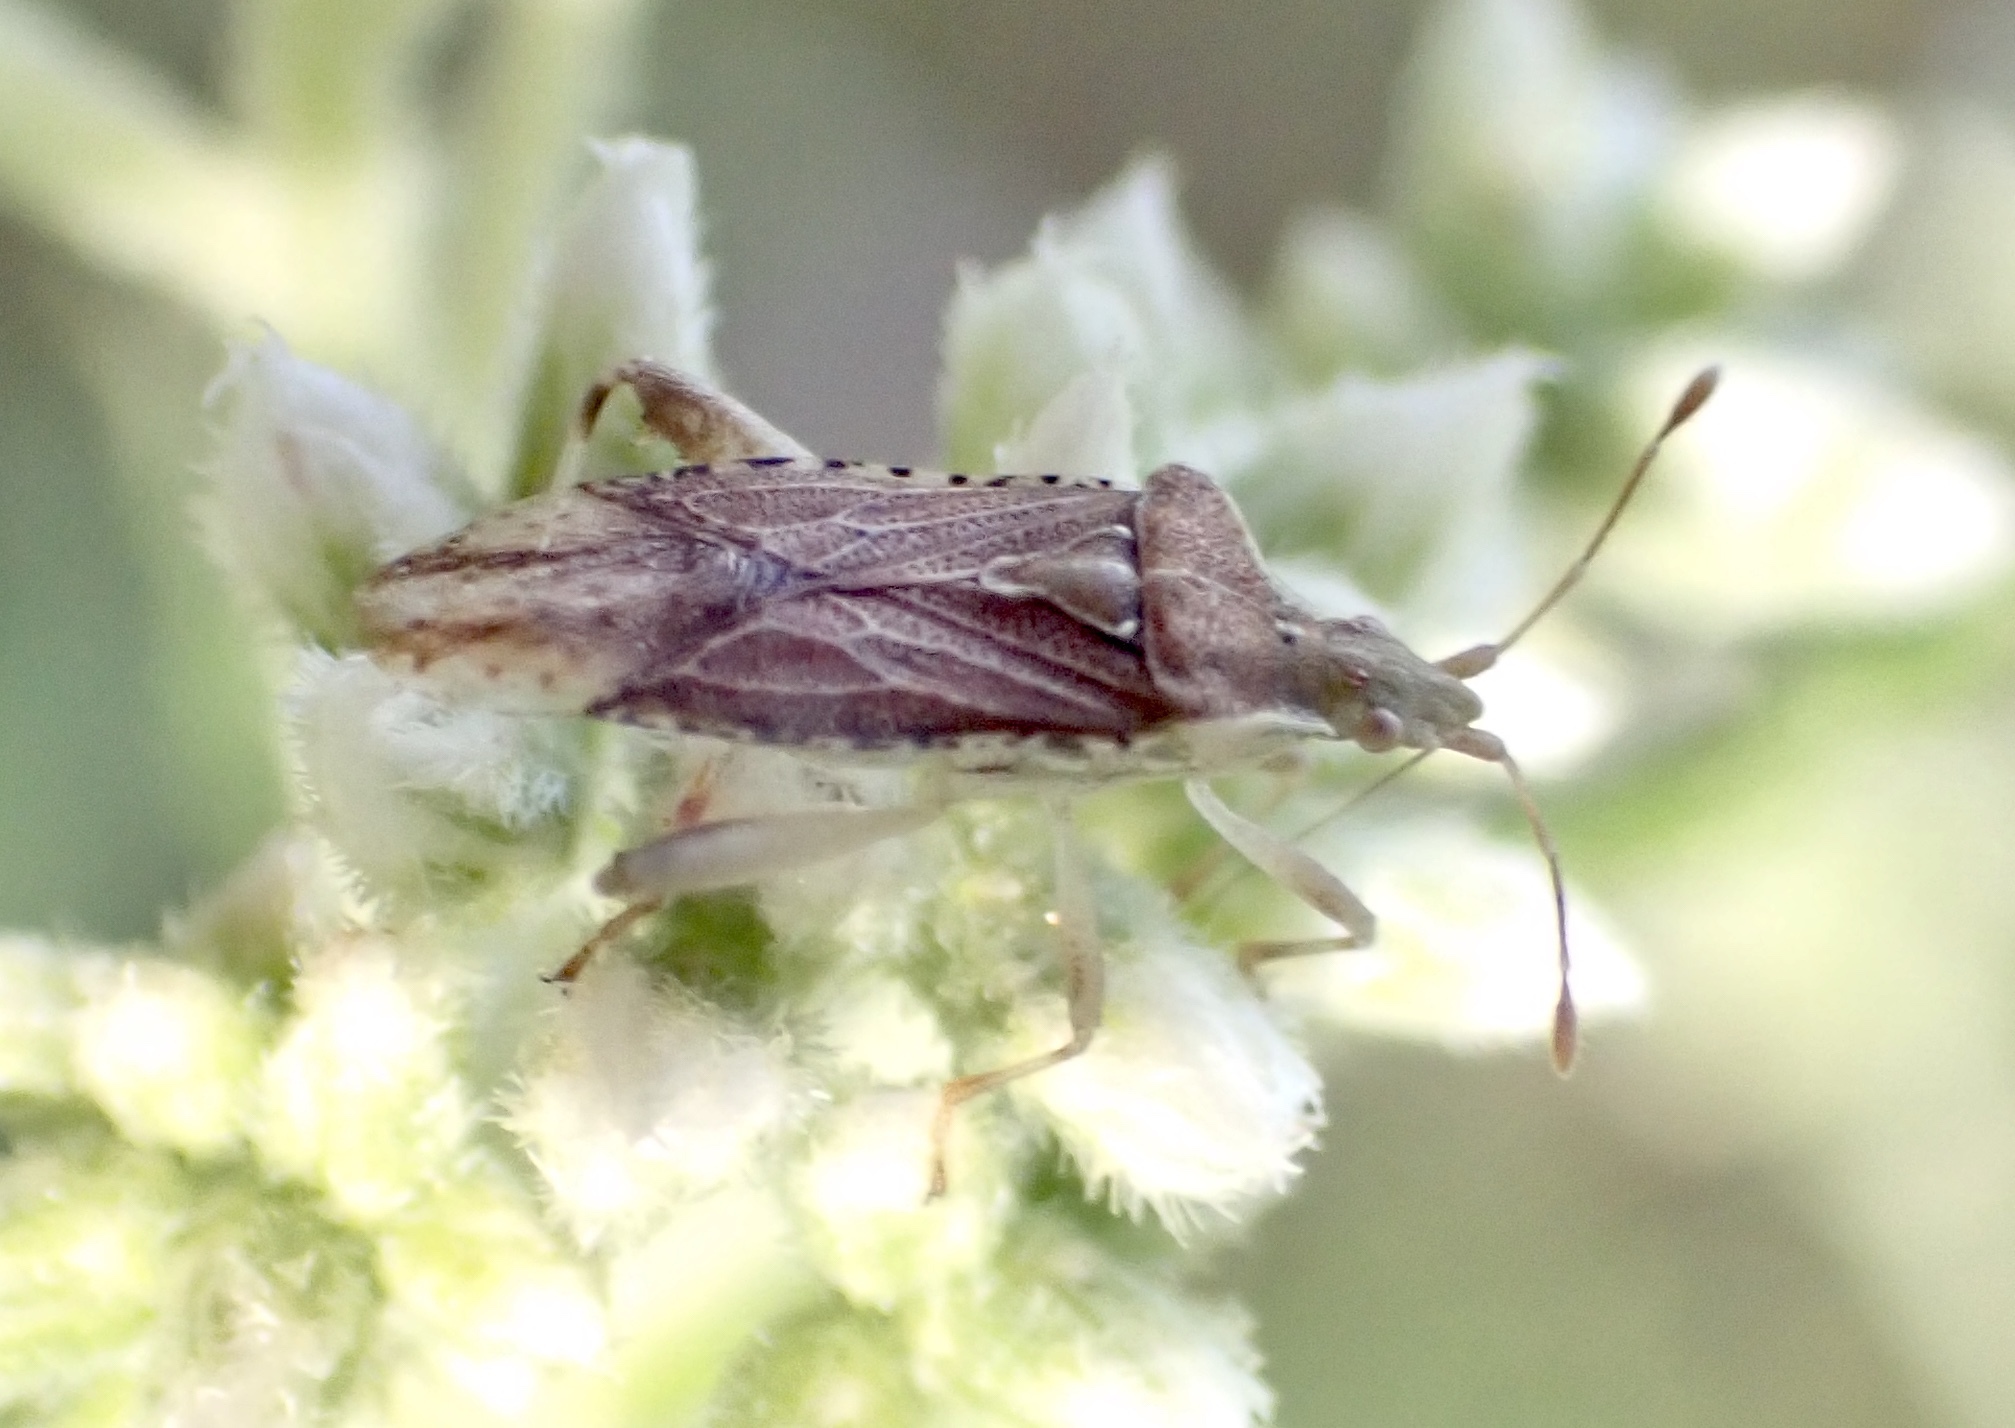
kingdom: Animalia
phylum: Arthropoda
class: Insecta
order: Hemiptera
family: Rhopalidae
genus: Harmostes
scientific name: Harmostes fraterculus
